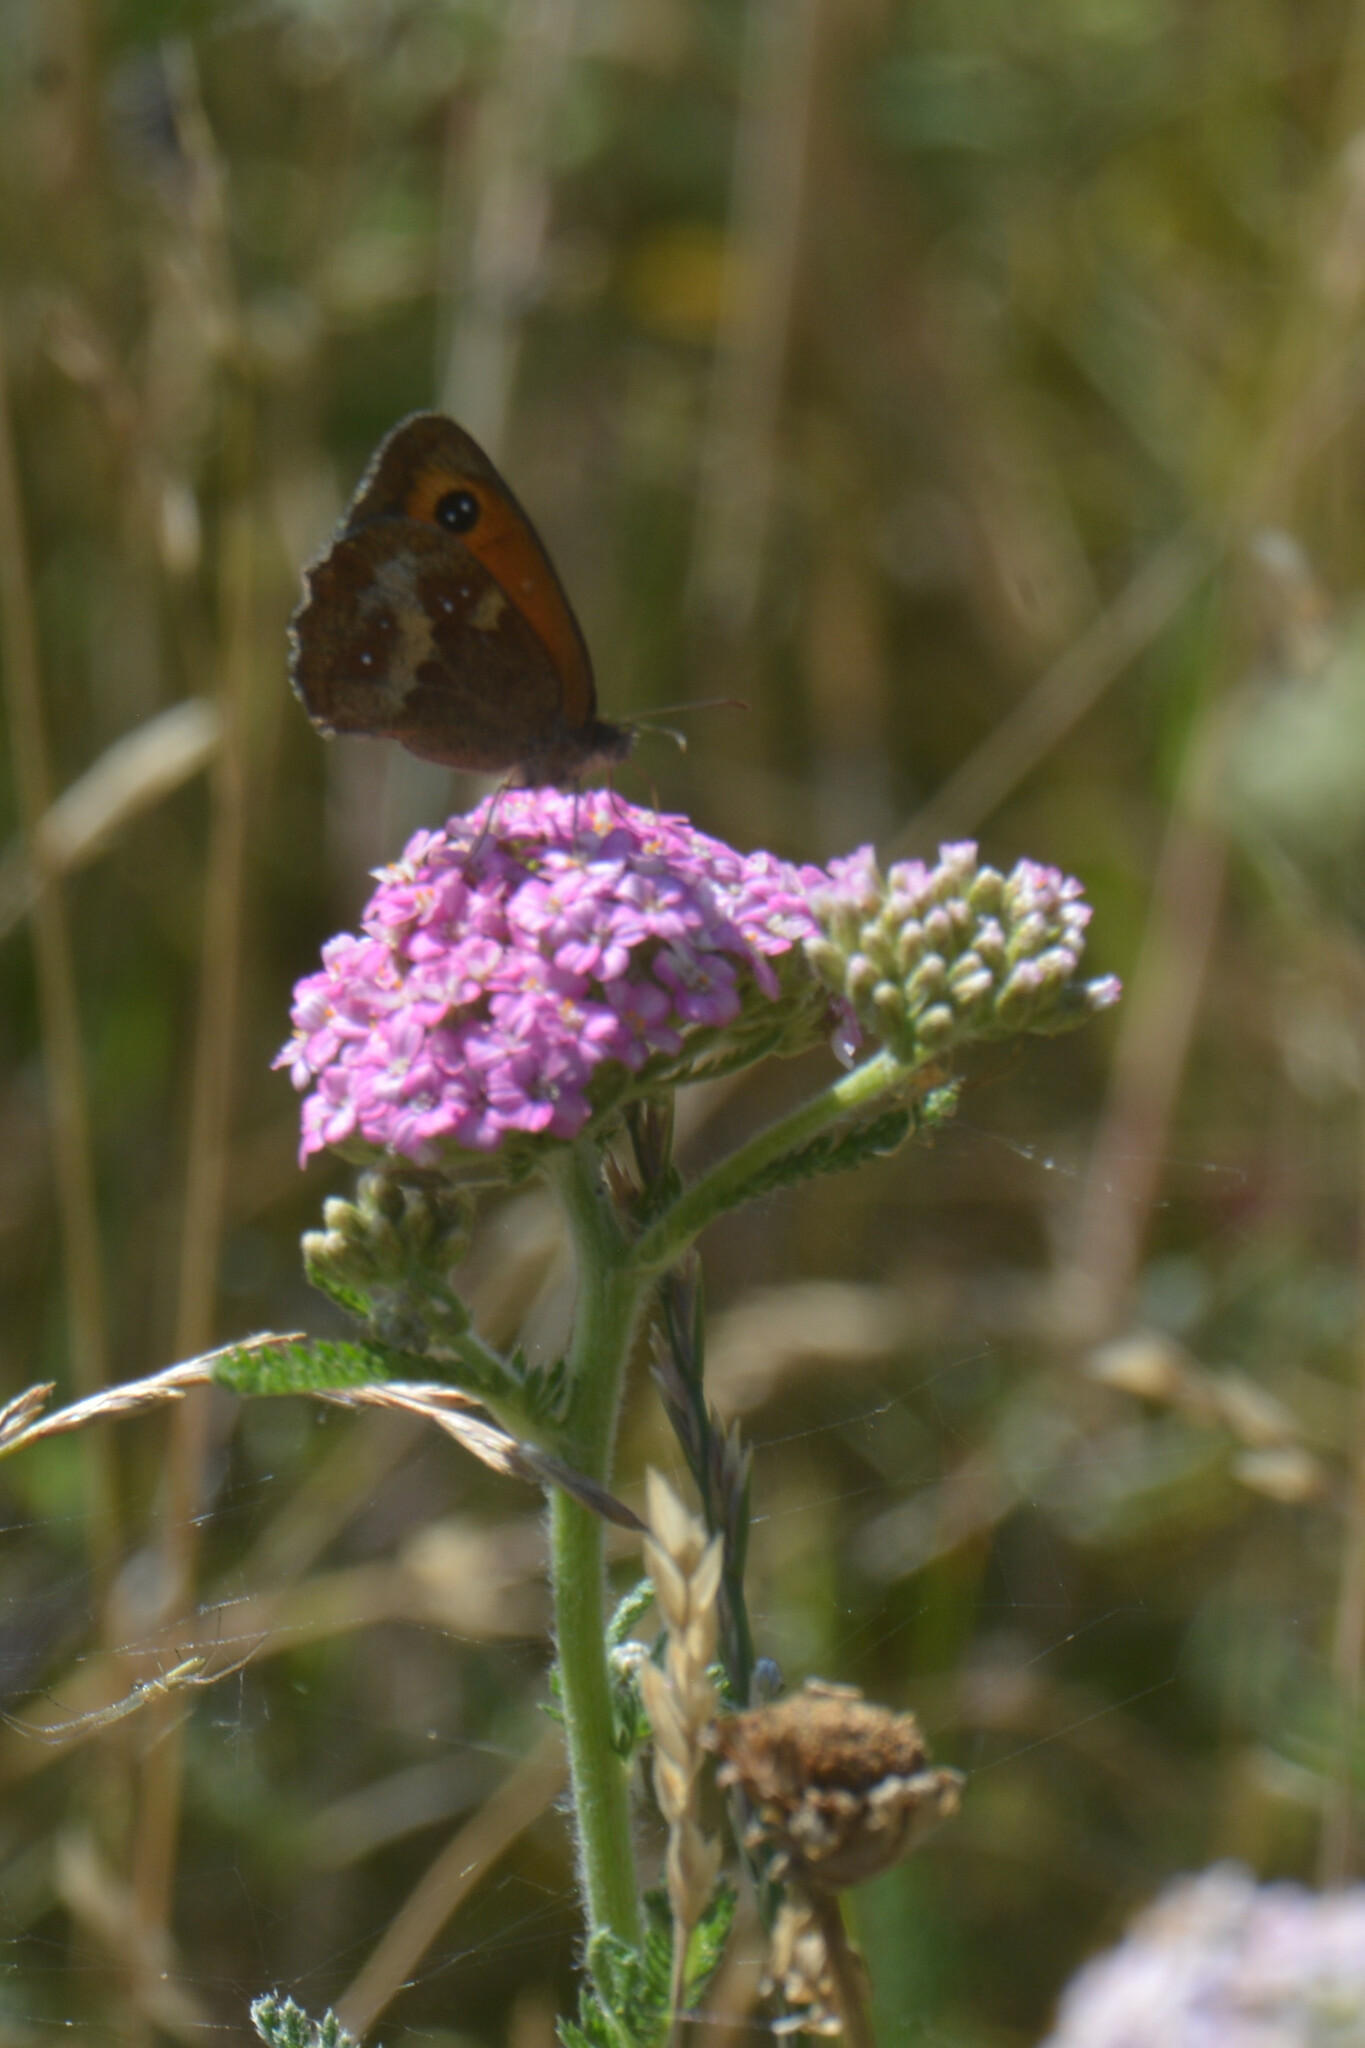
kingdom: Animalia
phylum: Arthropoda
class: Insecta
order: Lepidoptera
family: Nymphalidae
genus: Pyronia
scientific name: Pyronia tithonus
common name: Gatekeeper
